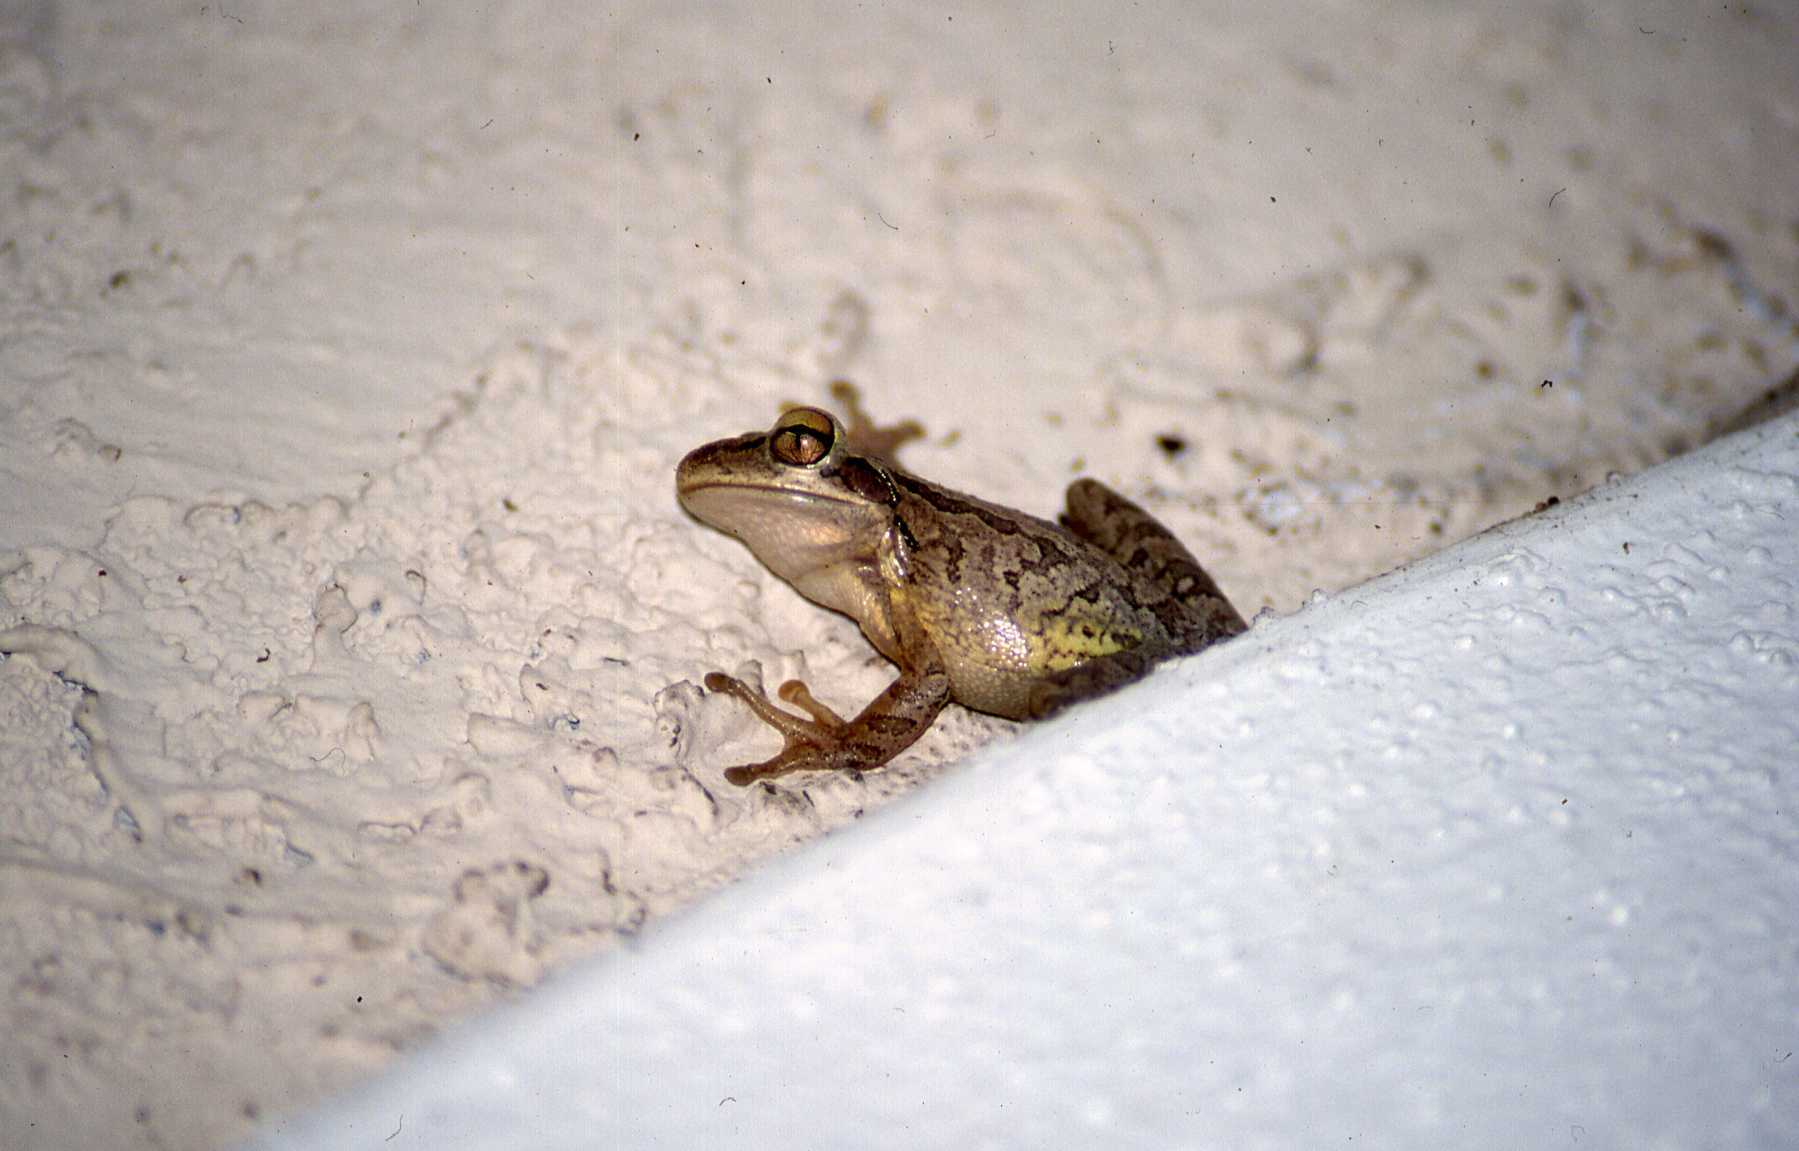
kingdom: Animalia
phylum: Chordata
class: Amphibia
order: Anura
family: Hylidae
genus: Osteopilus
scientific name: Osteopilus septentrionalis
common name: Cuban treefrog
